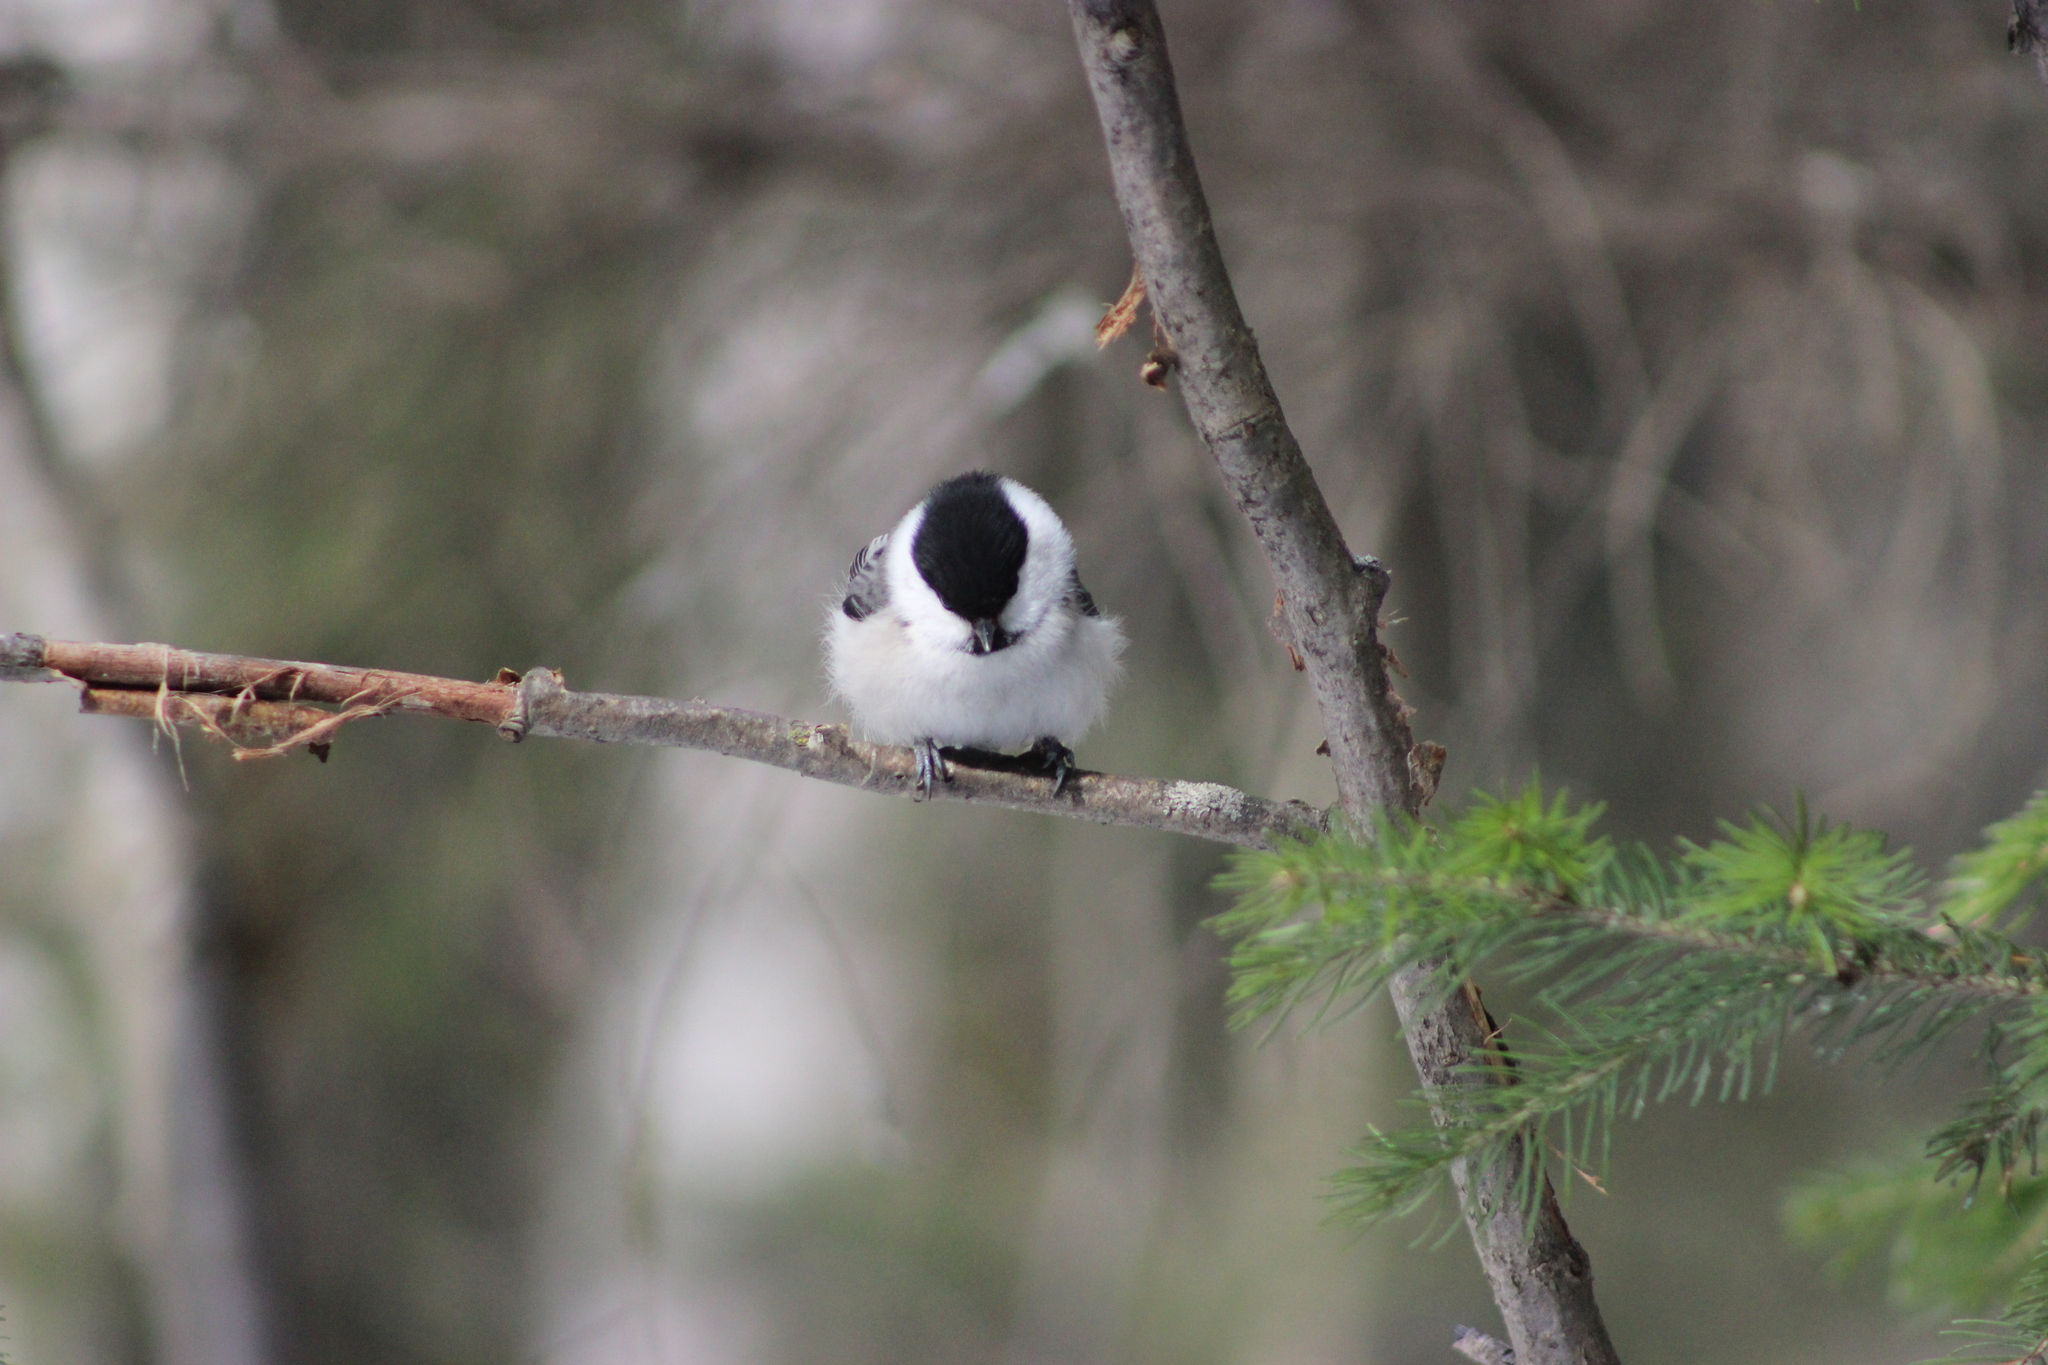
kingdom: Animalia
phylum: Chordata
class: Aves
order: Passeriformes
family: Paridae
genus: Poecile
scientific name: Poecile montanus
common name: Willow tit
